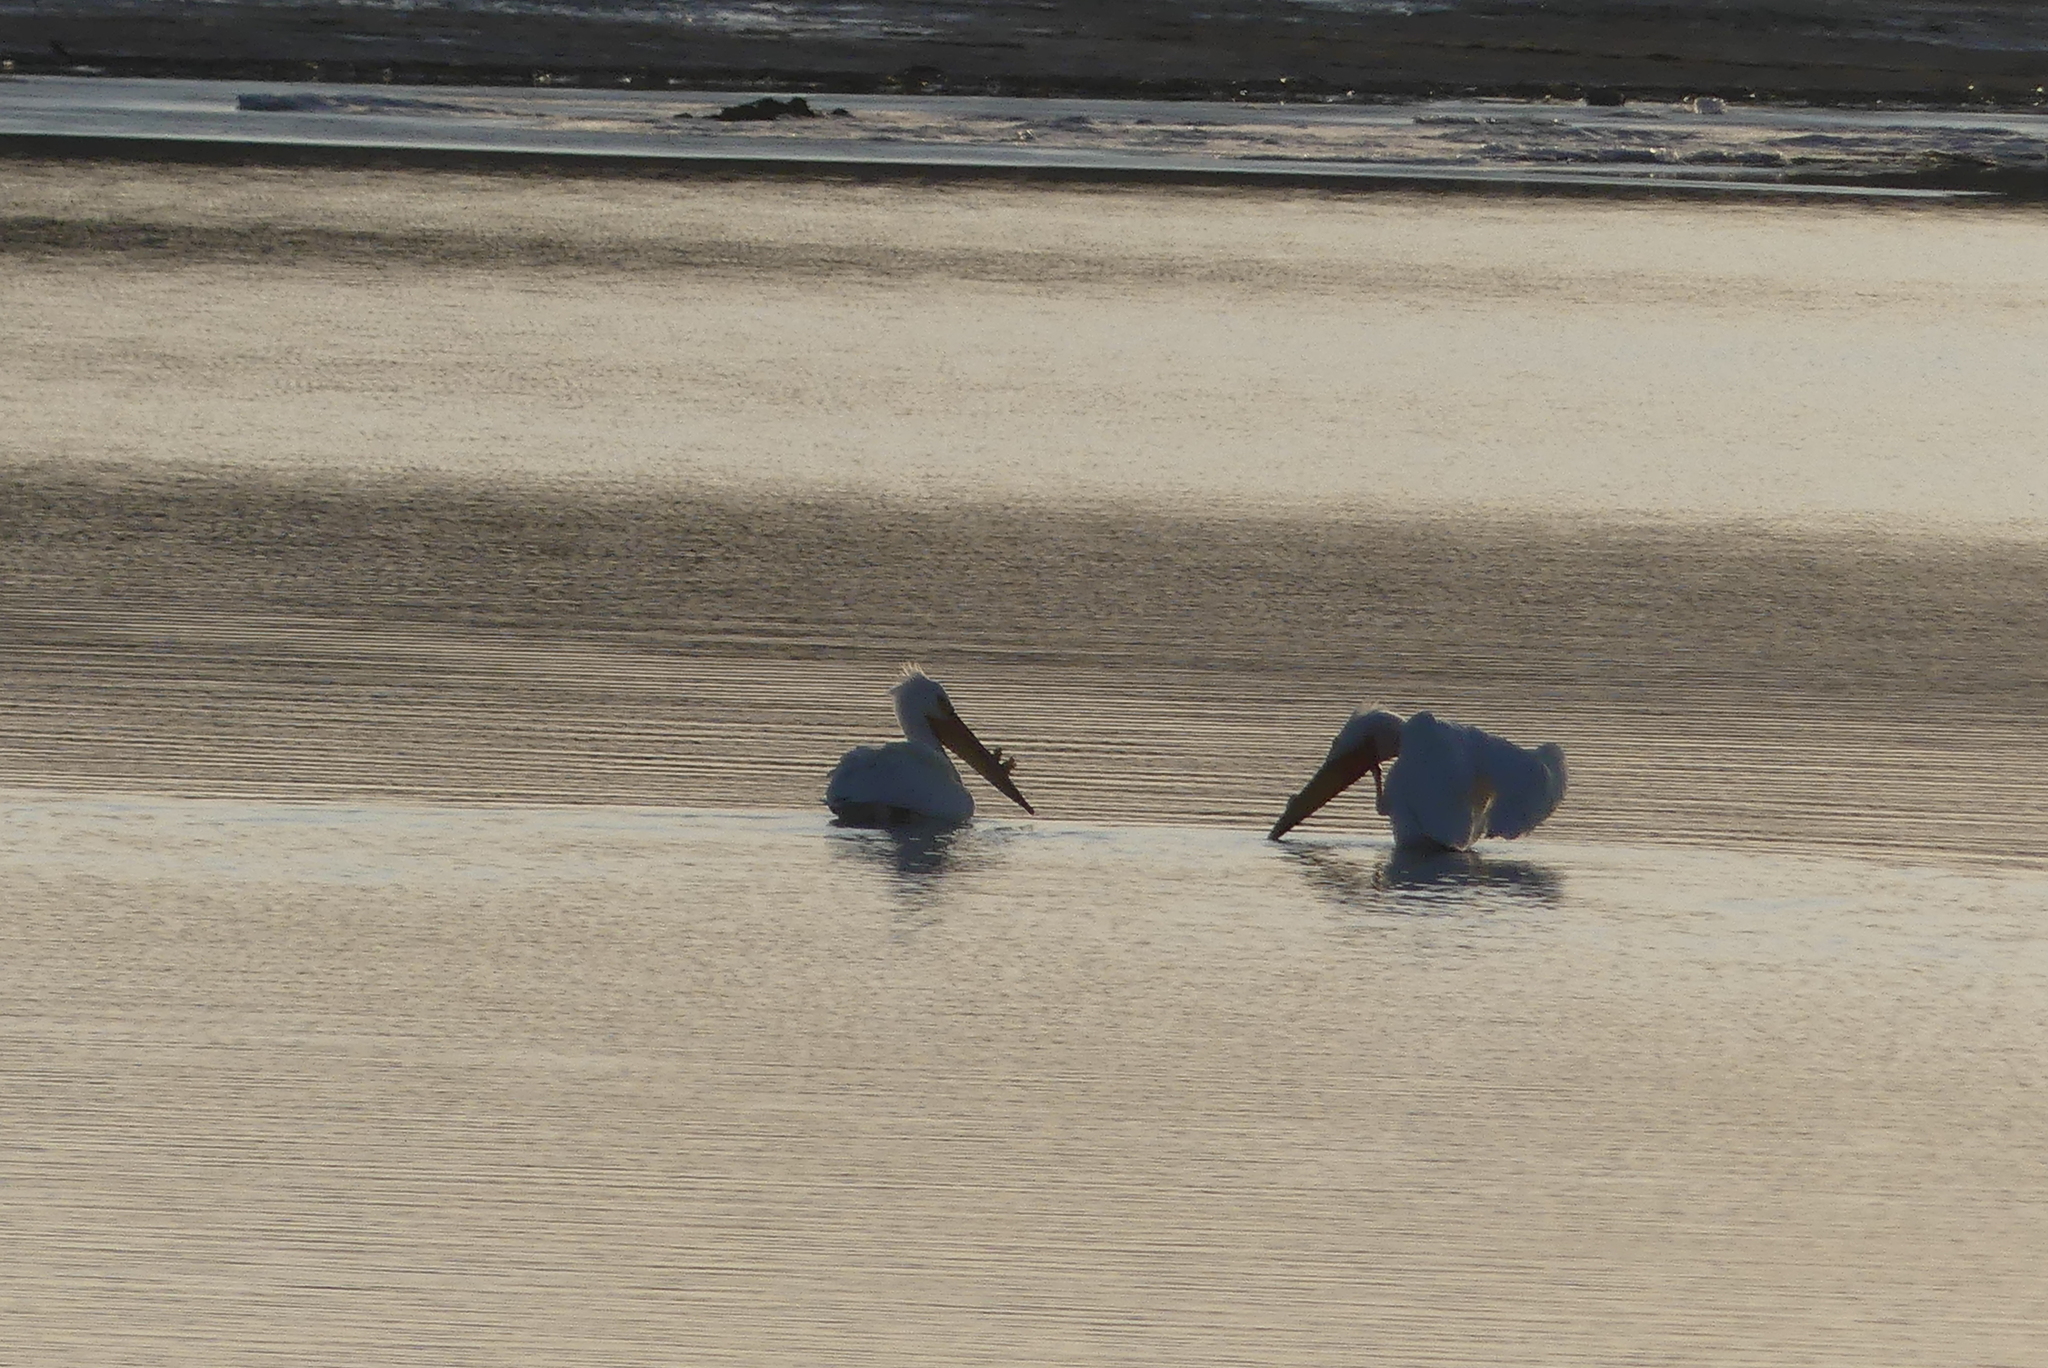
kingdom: Animalia
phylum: Chordata
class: Aves
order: Pelecaniformes
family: Pelecanidae
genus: Pelecanus
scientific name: Pelecanus erythrorhynchos
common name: American white pelican
